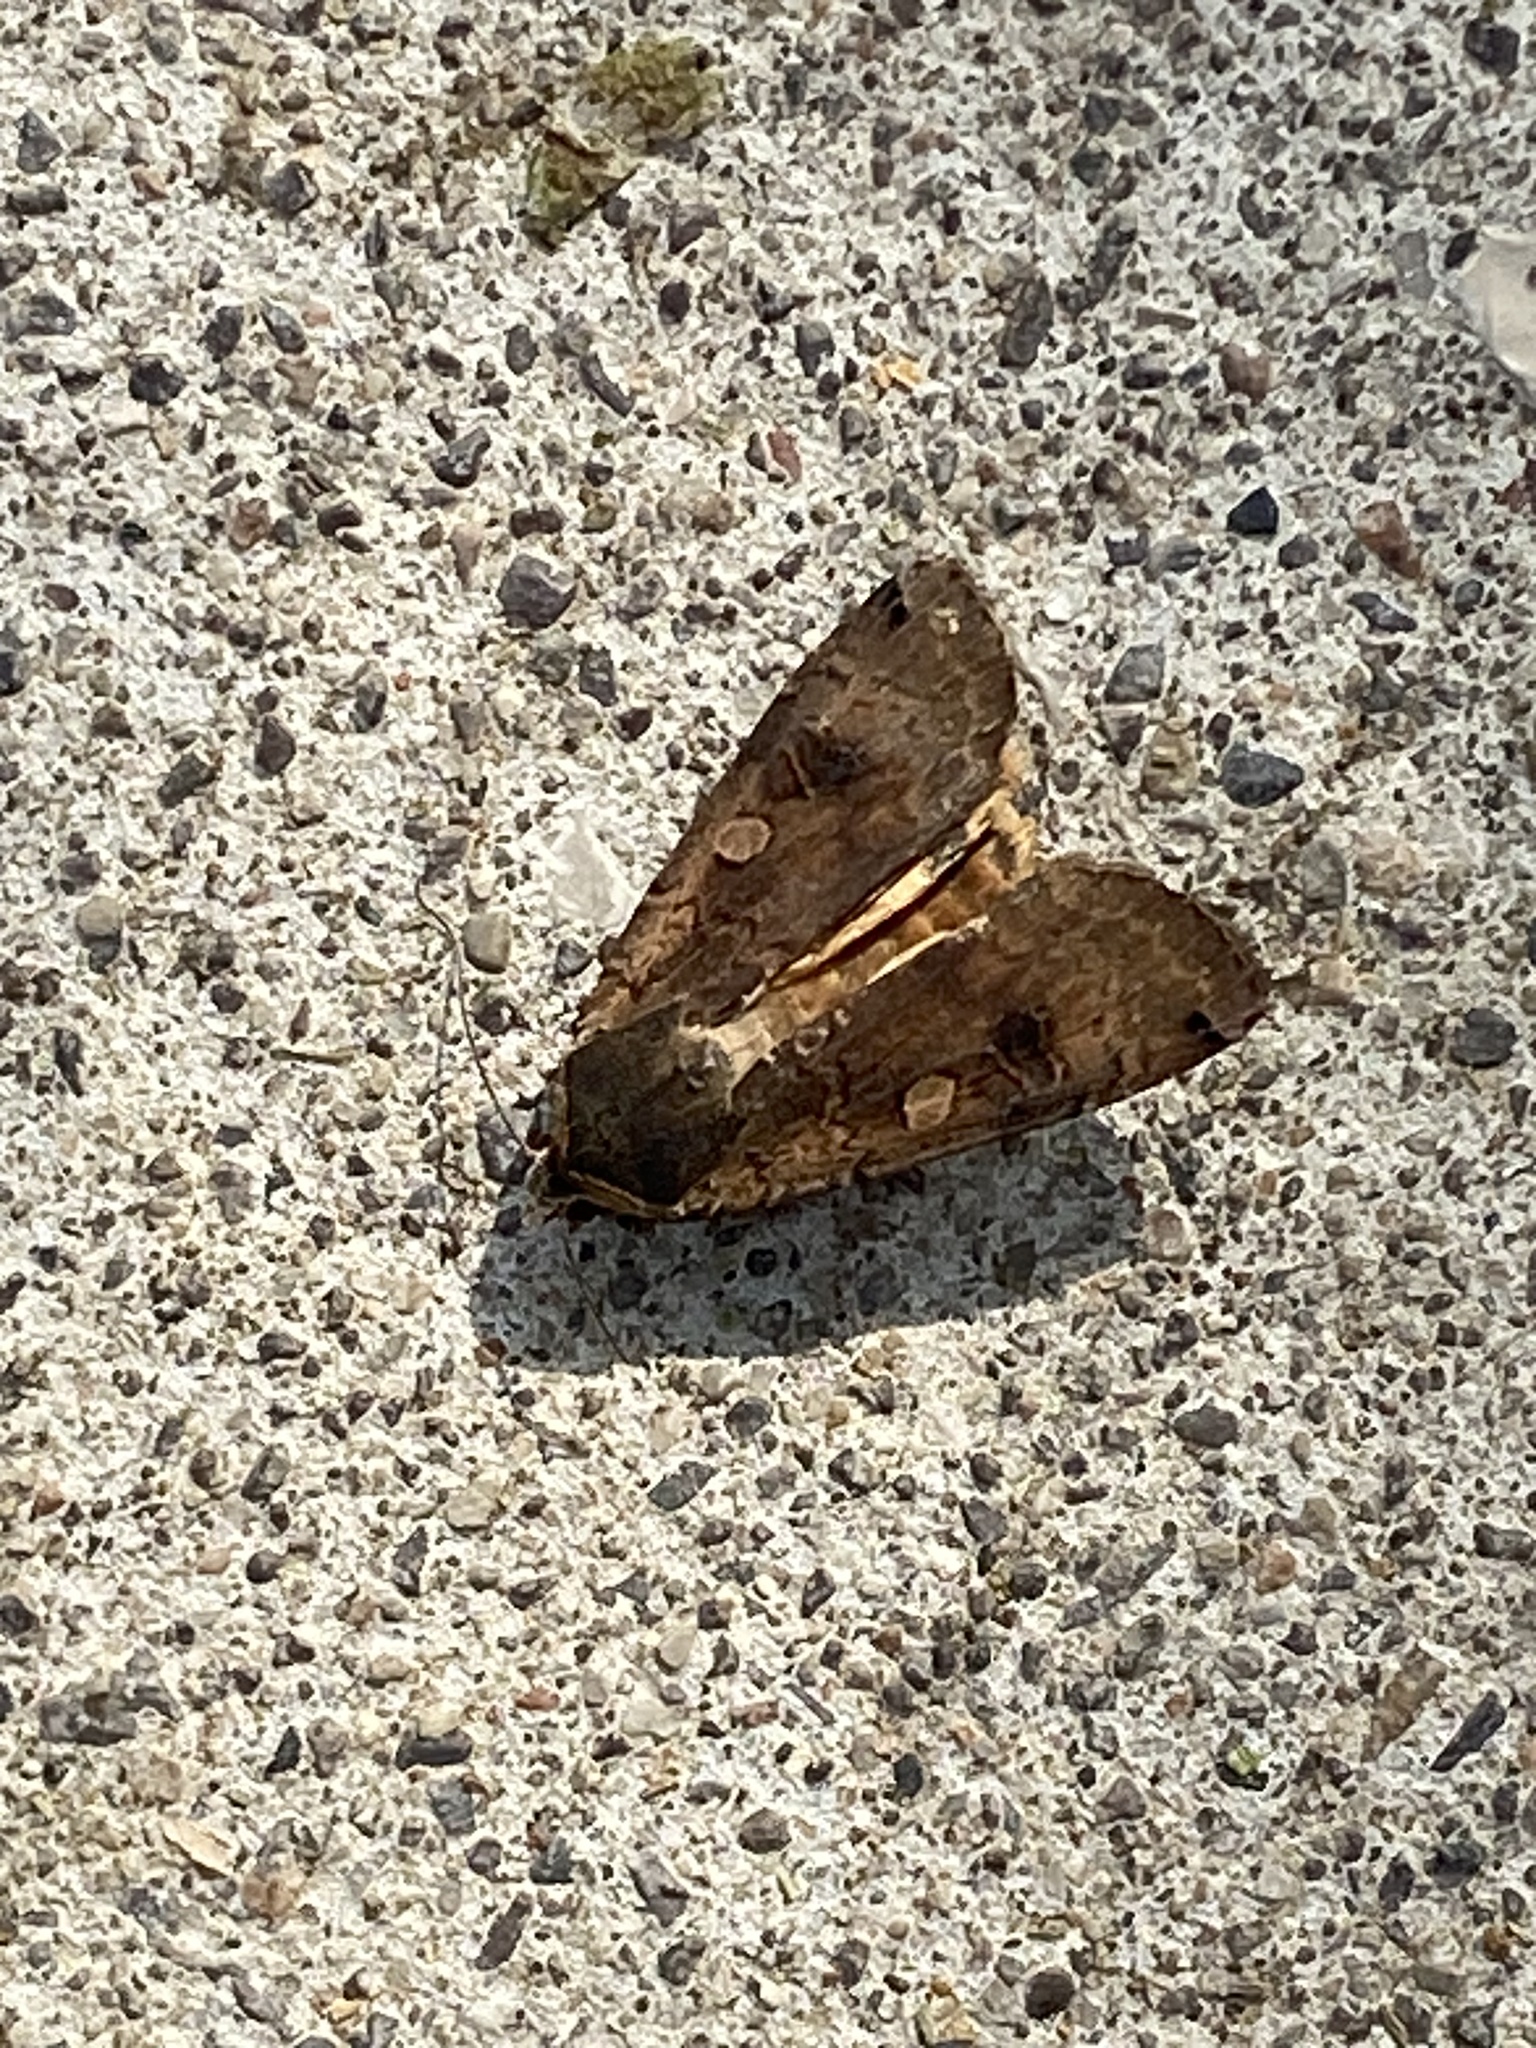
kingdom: Animalia
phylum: Arthropoda
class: Insecta
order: Lepidoptera
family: Noctuidae
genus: Noctua
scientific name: Noctua pronuba
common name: Large yellow underwing
